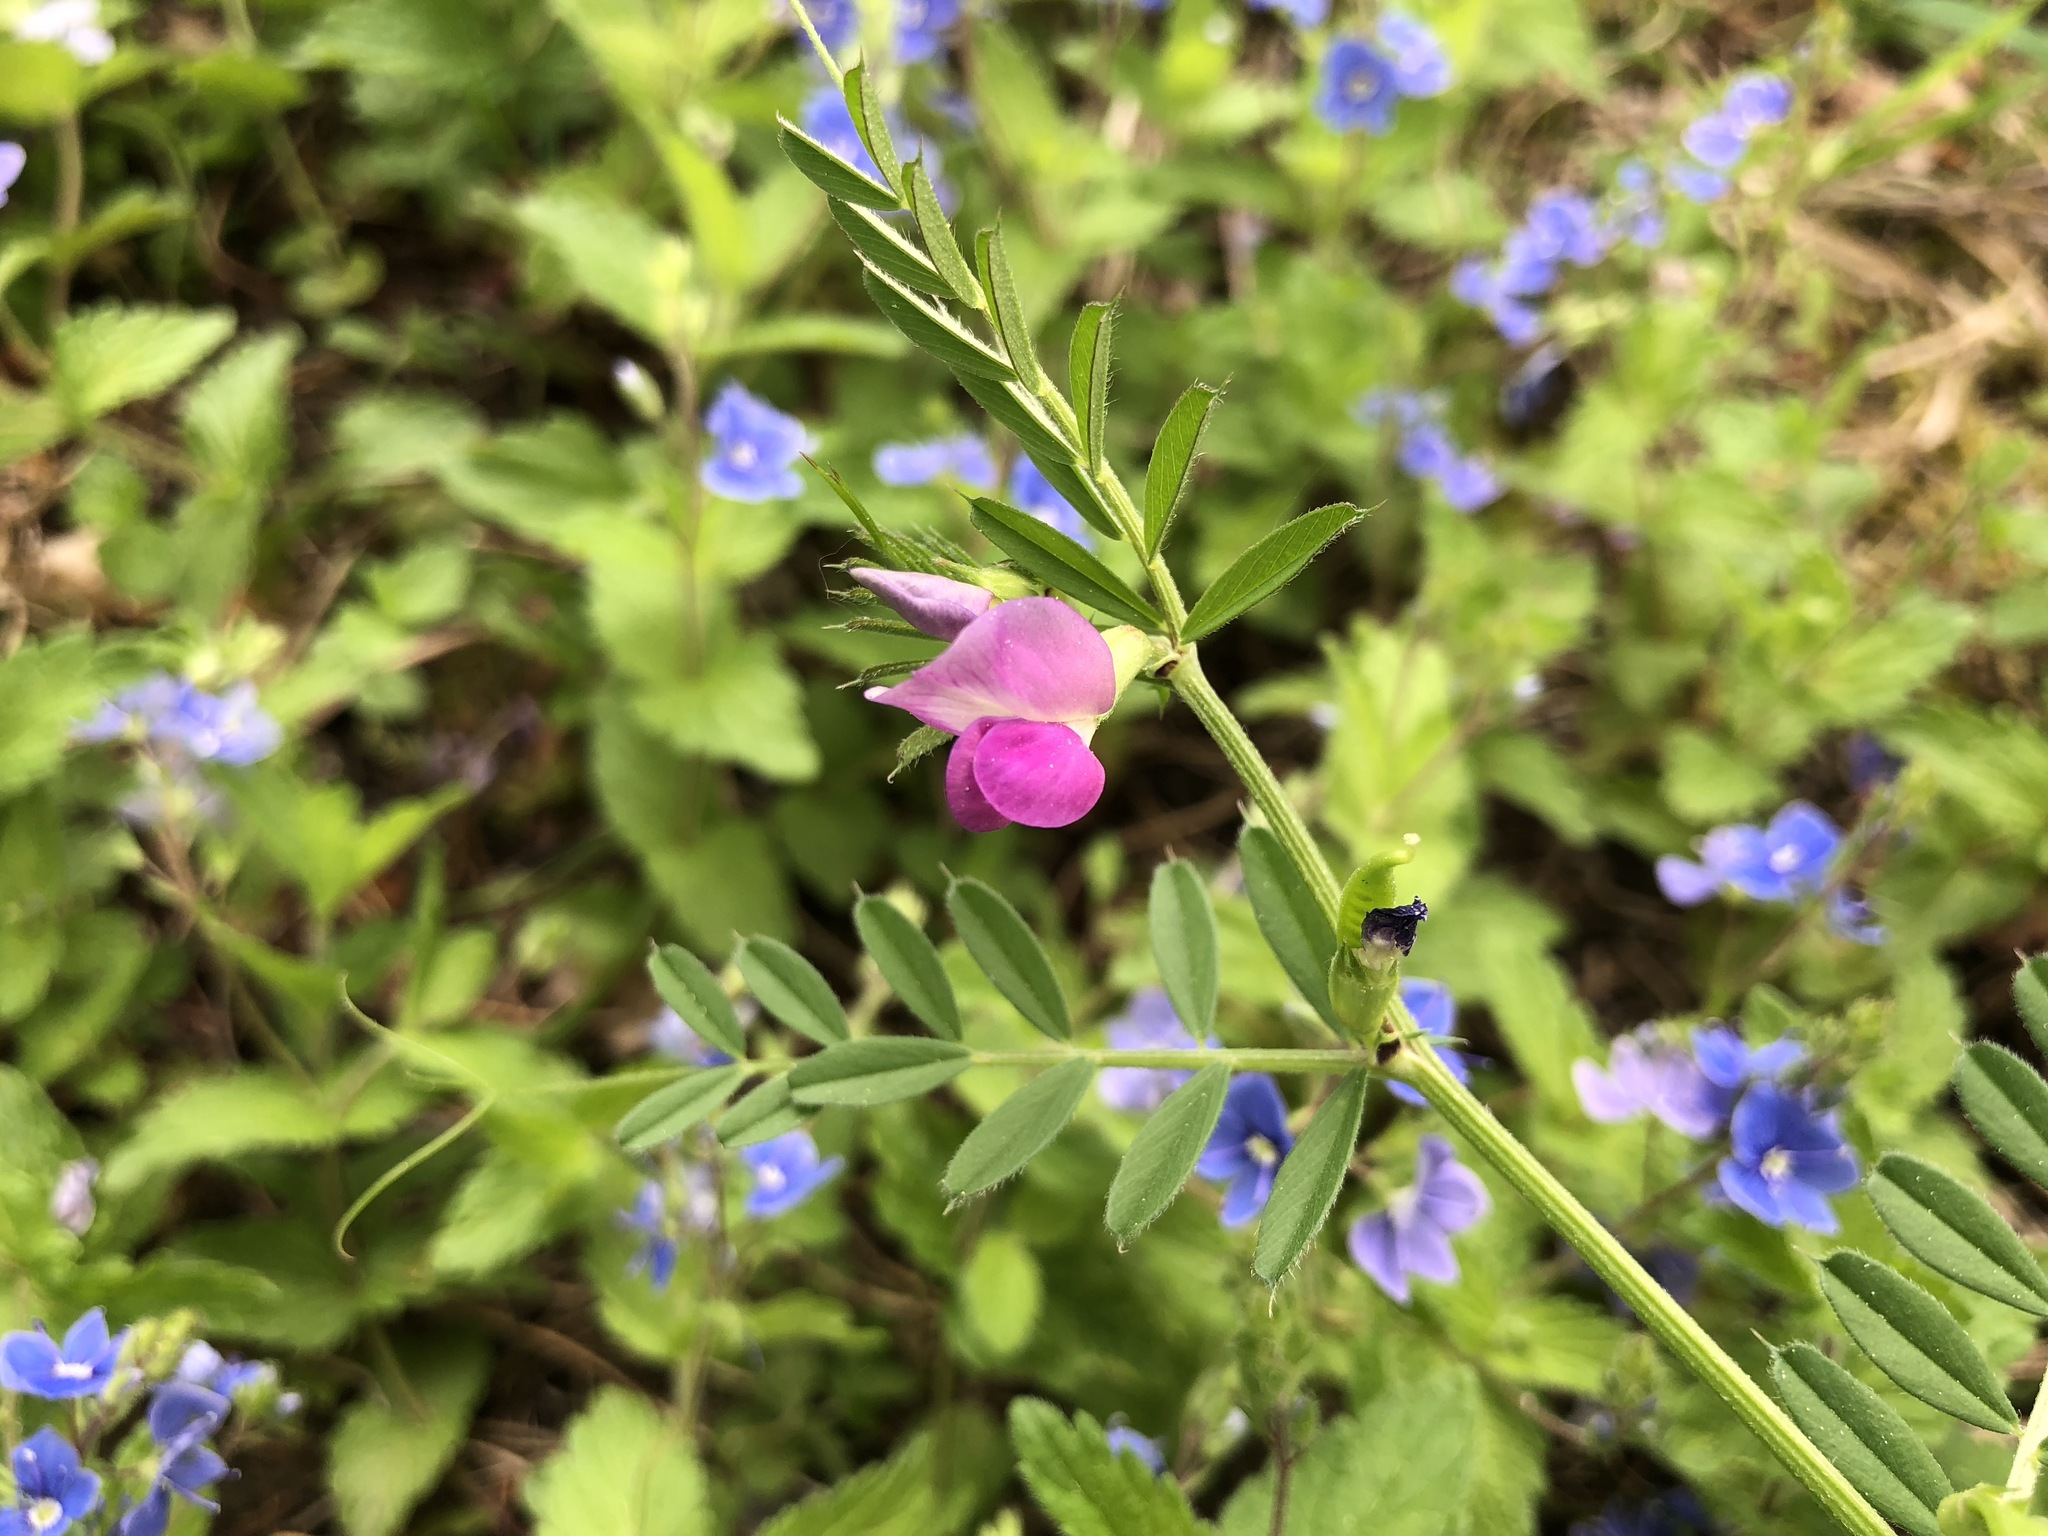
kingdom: Plantae
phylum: Tracheophyta
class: Magnoliopsida
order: Fabales
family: Fabaceae
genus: Vicia
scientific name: Vicia sativa
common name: Garden vetch
